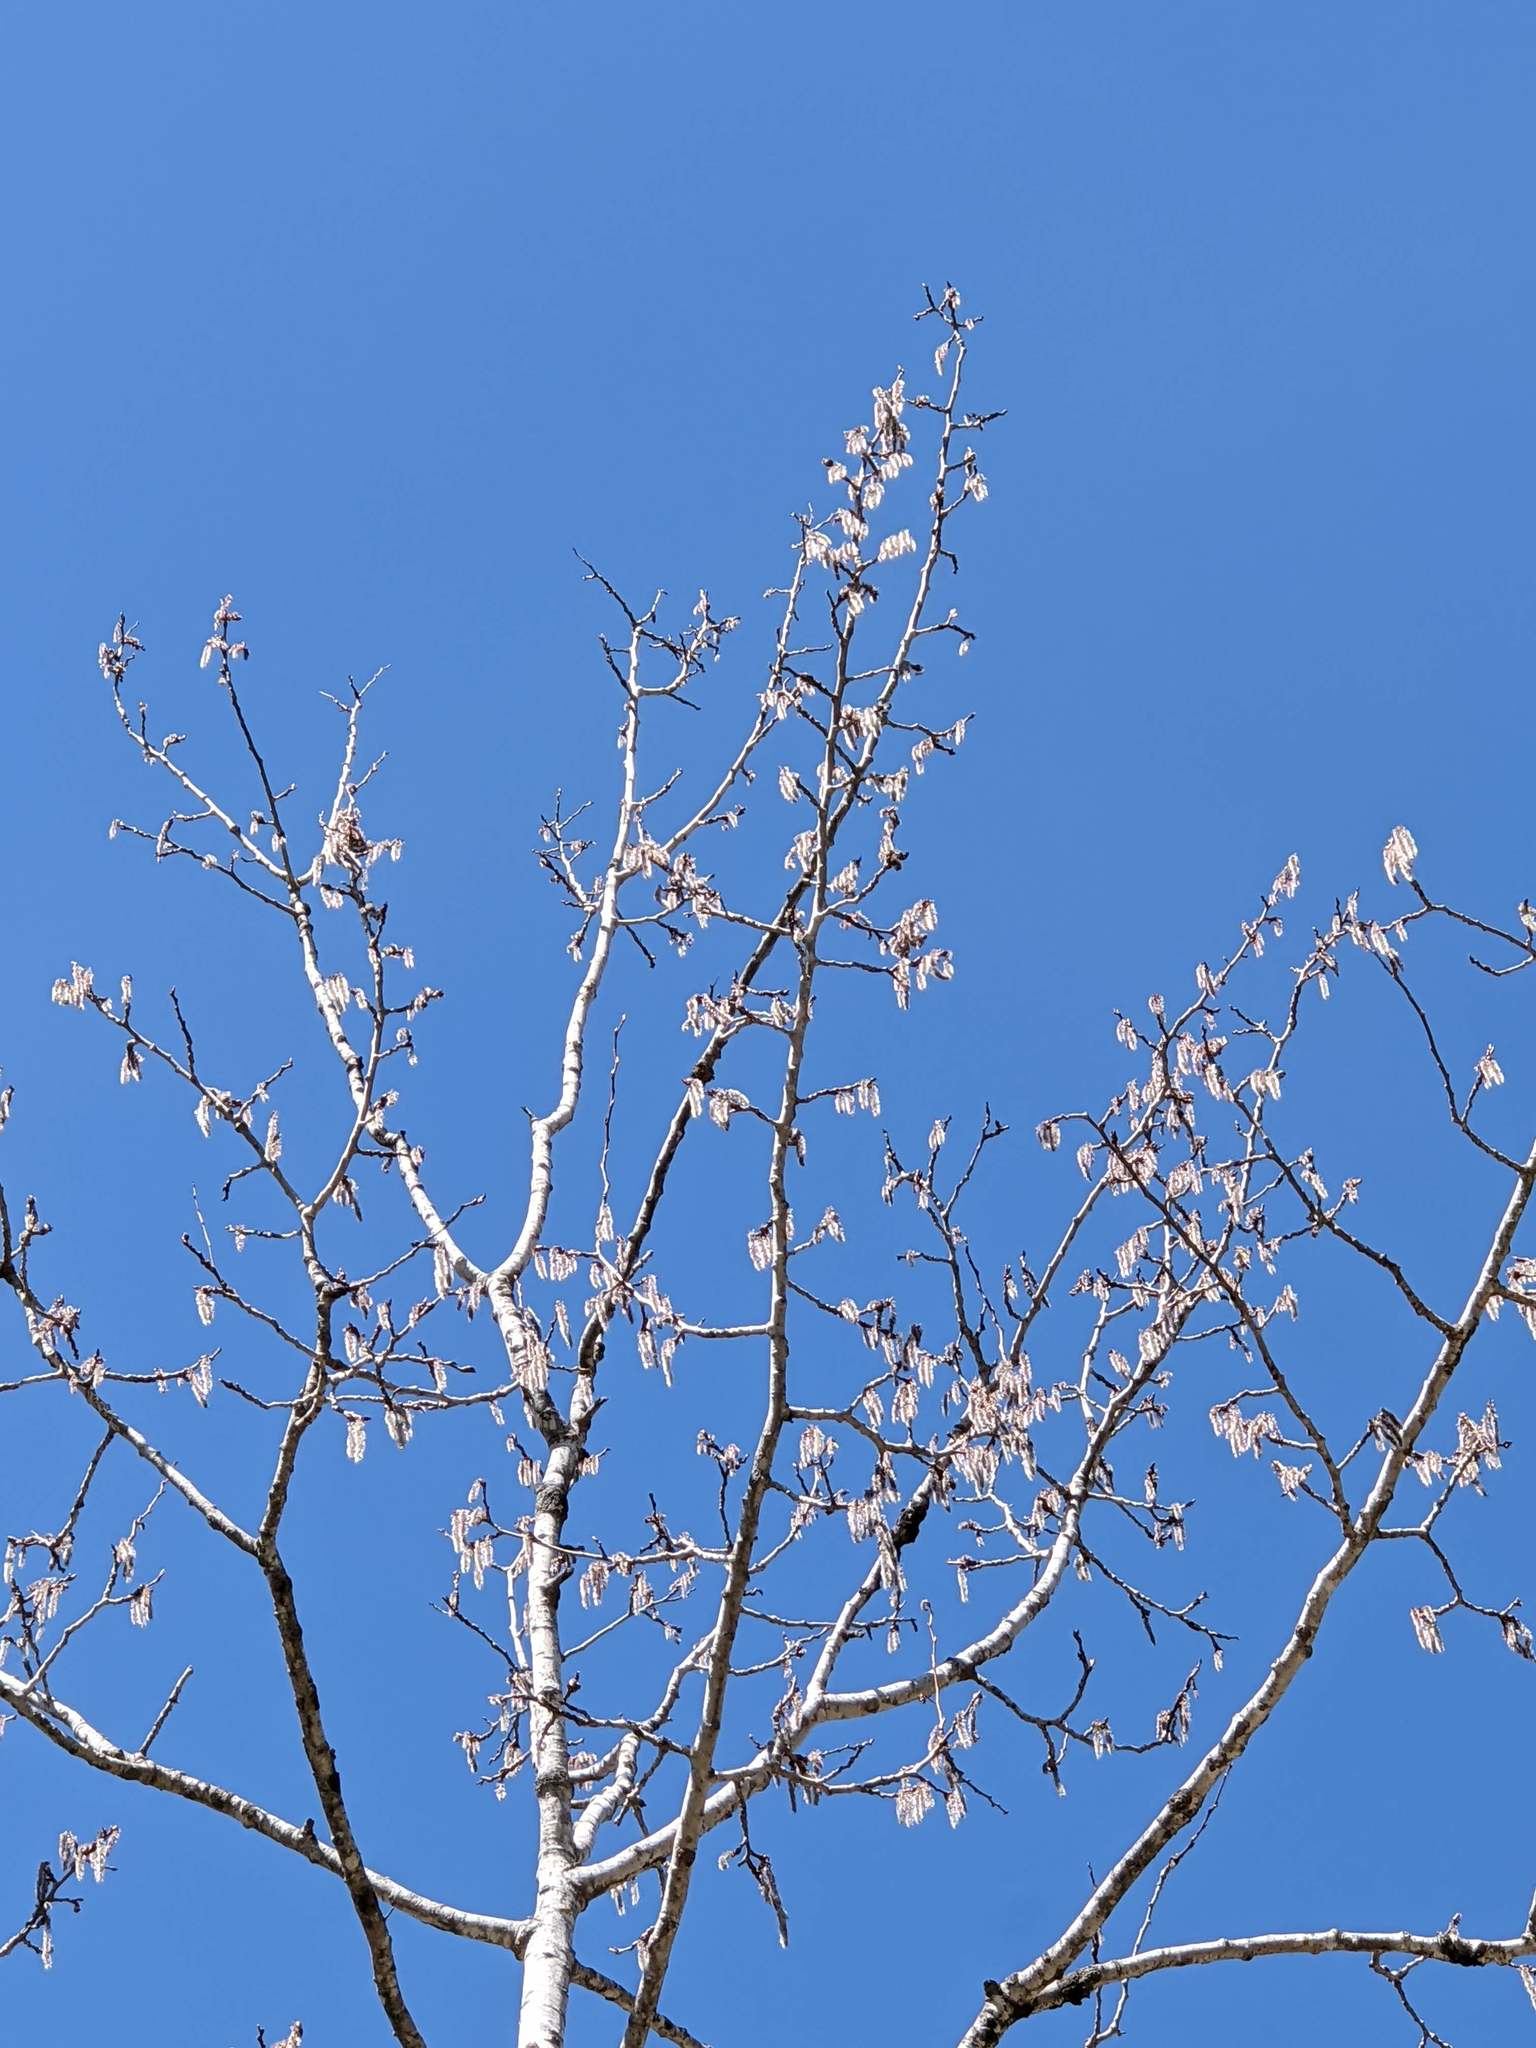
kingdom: Plantae
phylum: Tracheophyta
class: Magnoliopsida
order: Malpighiales
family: Salicaceae
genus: Populus
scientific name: Populus grandidentata
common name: Bigtooth aspen
